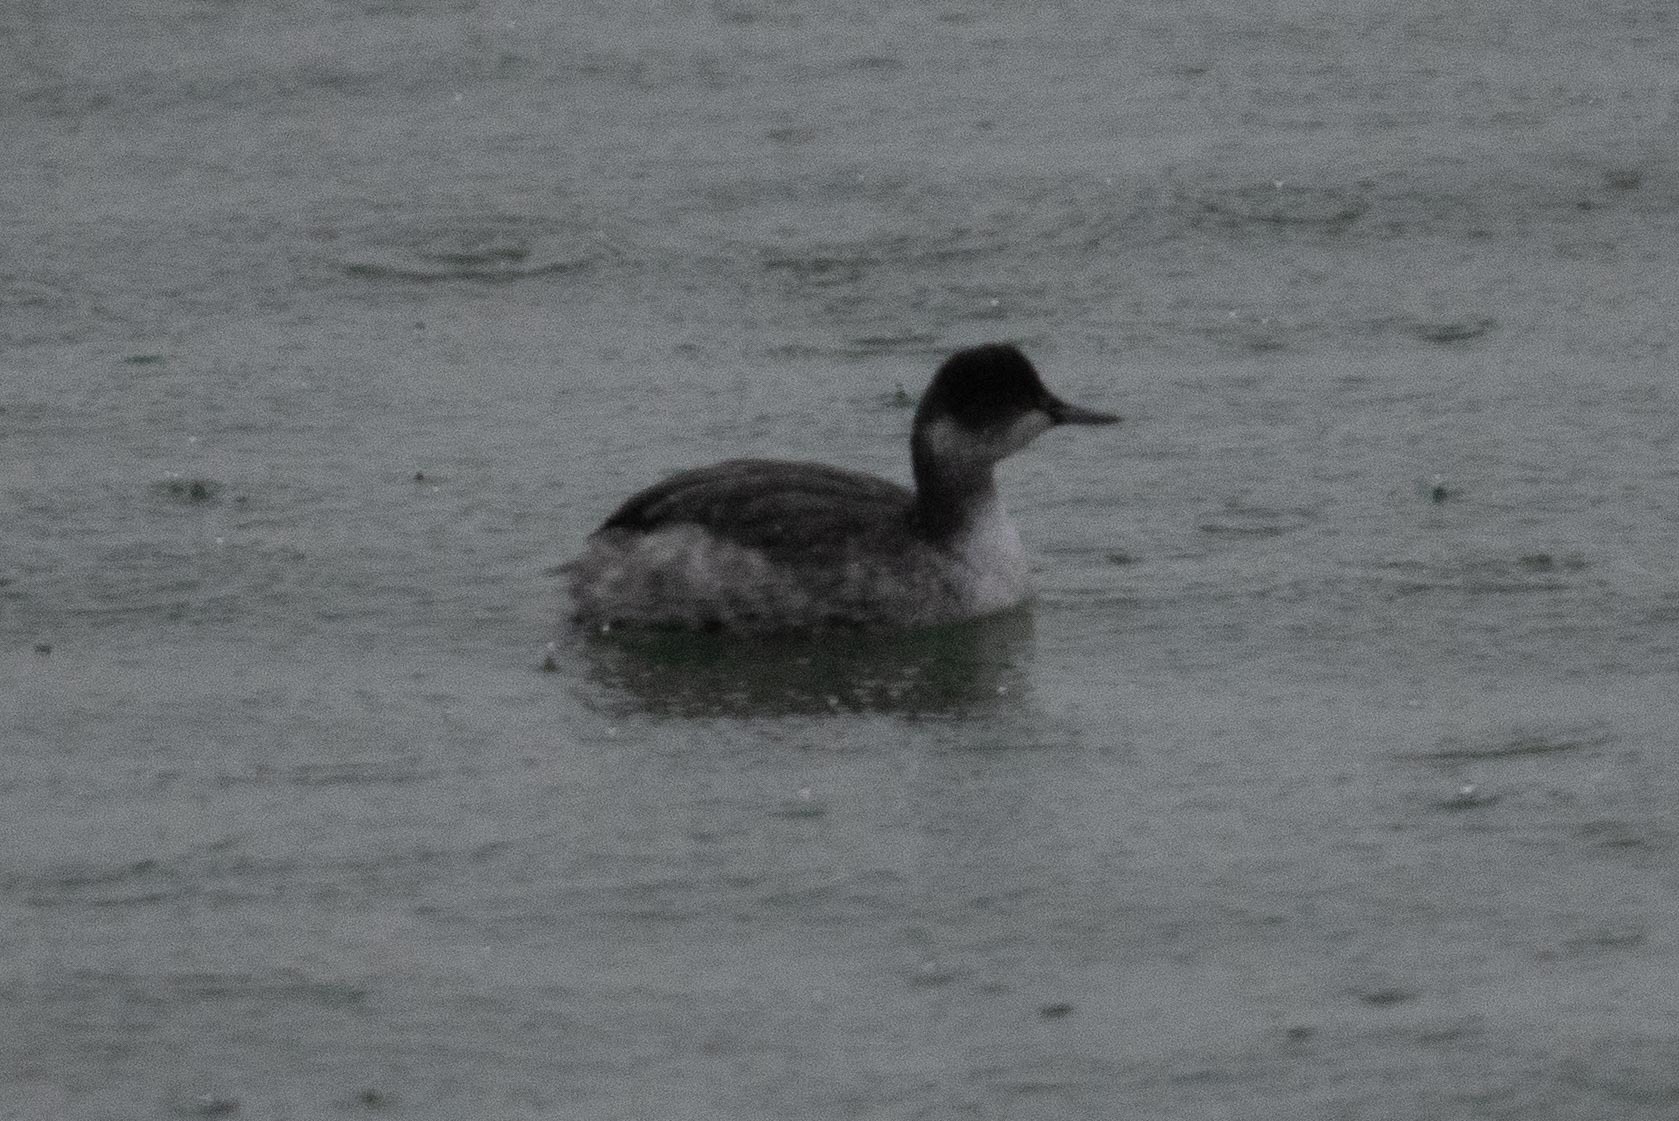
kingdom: Animalia
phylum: Chordata
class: Aves
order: Podicipediformes
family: Podicipedidae
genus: Podiceps
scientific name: Podiceps nigricollis
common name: Black-necked grebe
